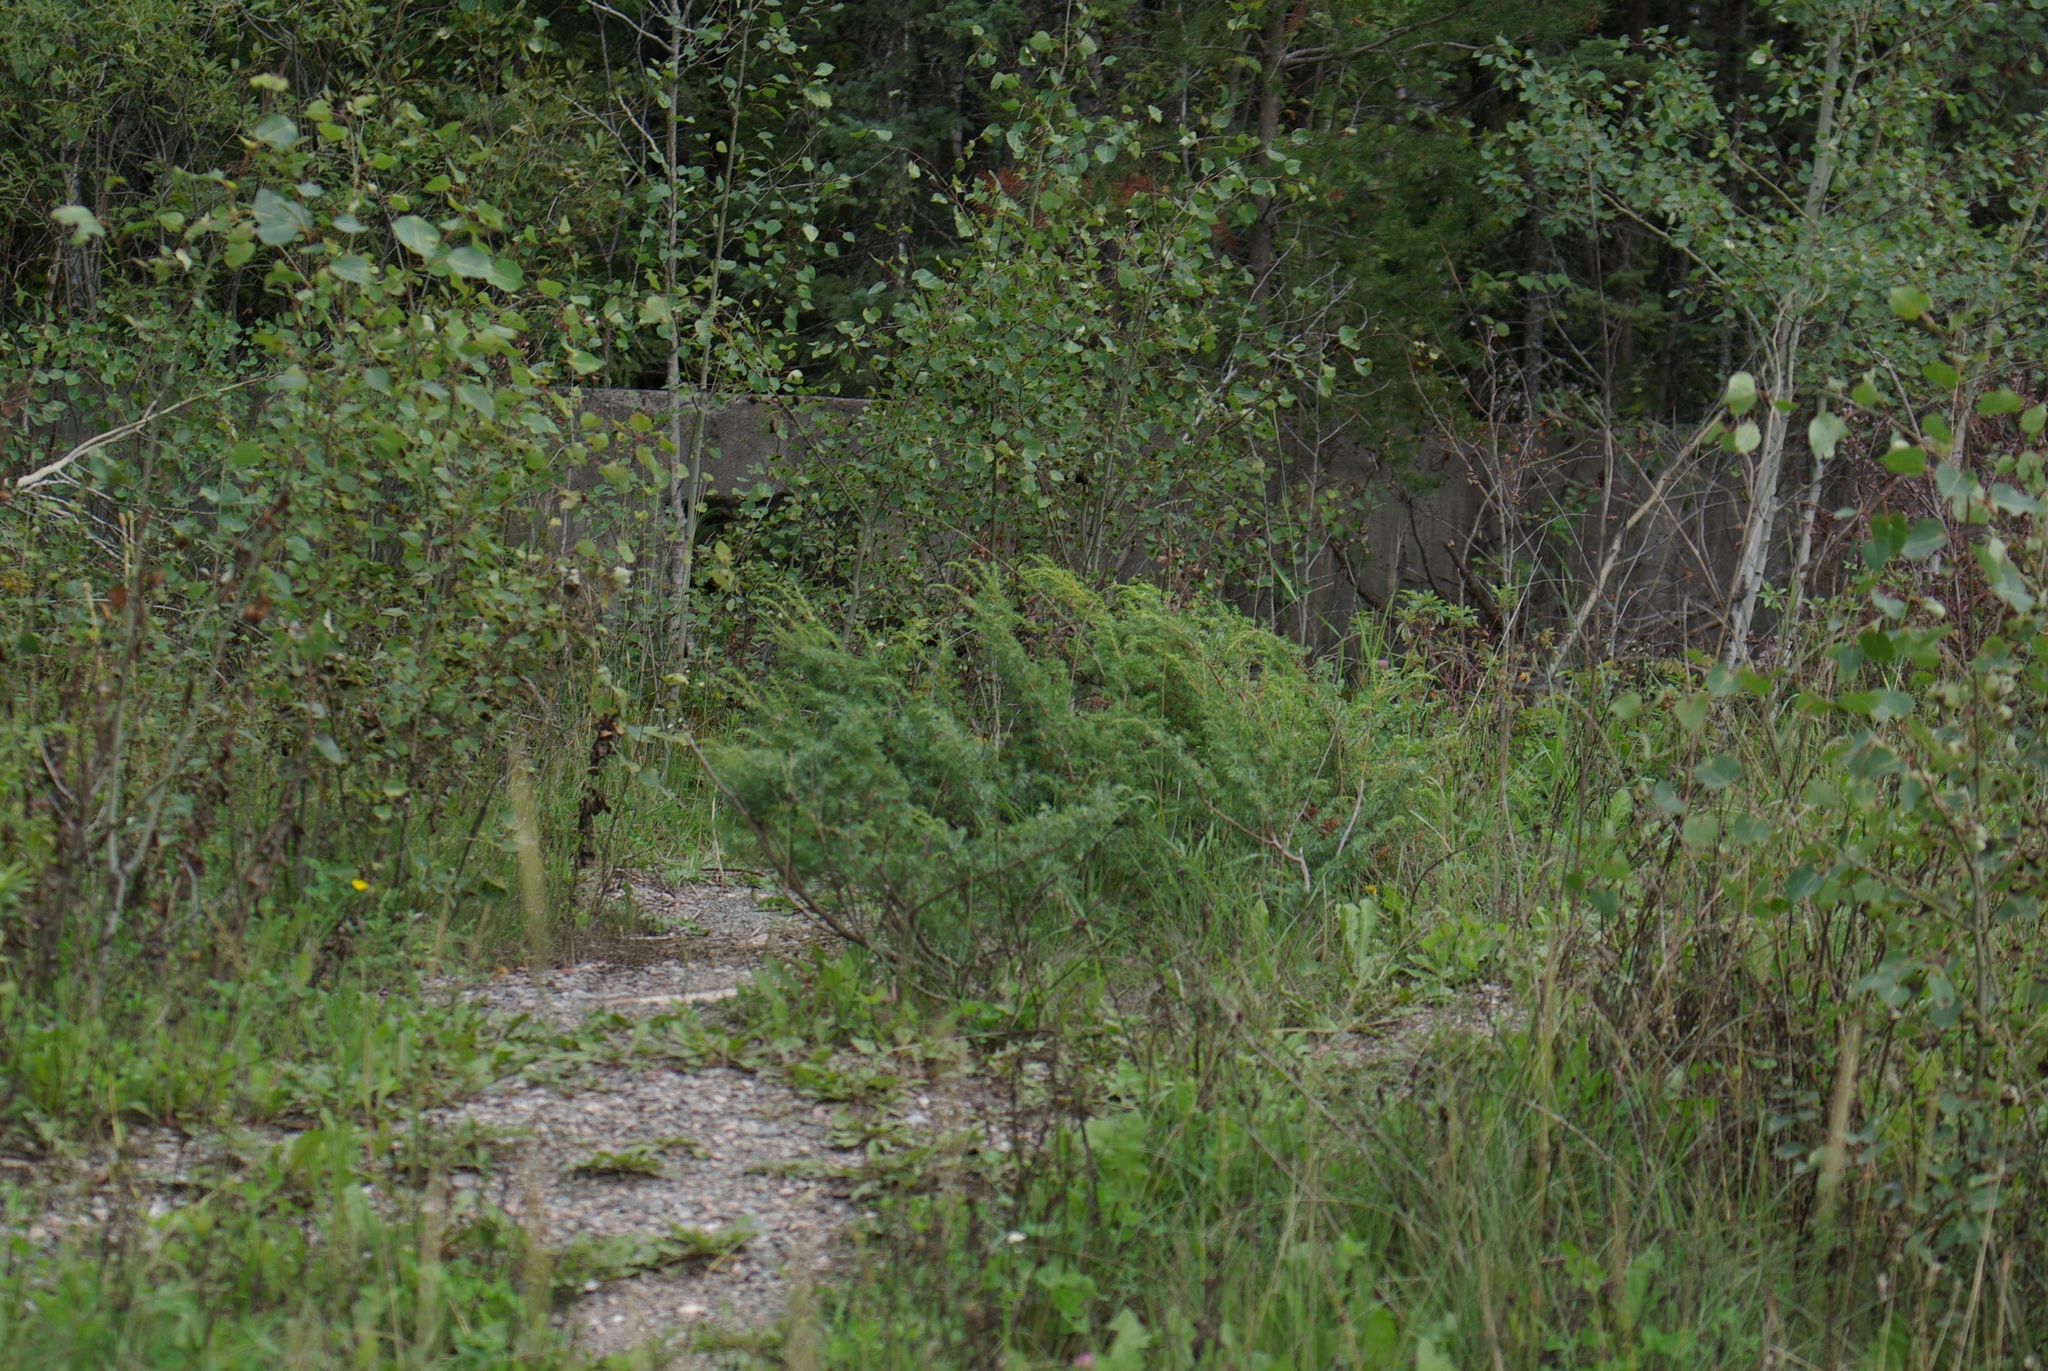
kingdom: Plantae
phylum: Tracheophyta
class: Pinopsida
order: Pinales
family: Cupressaceae
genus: Juniperus
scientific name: Juniperus communis
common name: Common juniper
